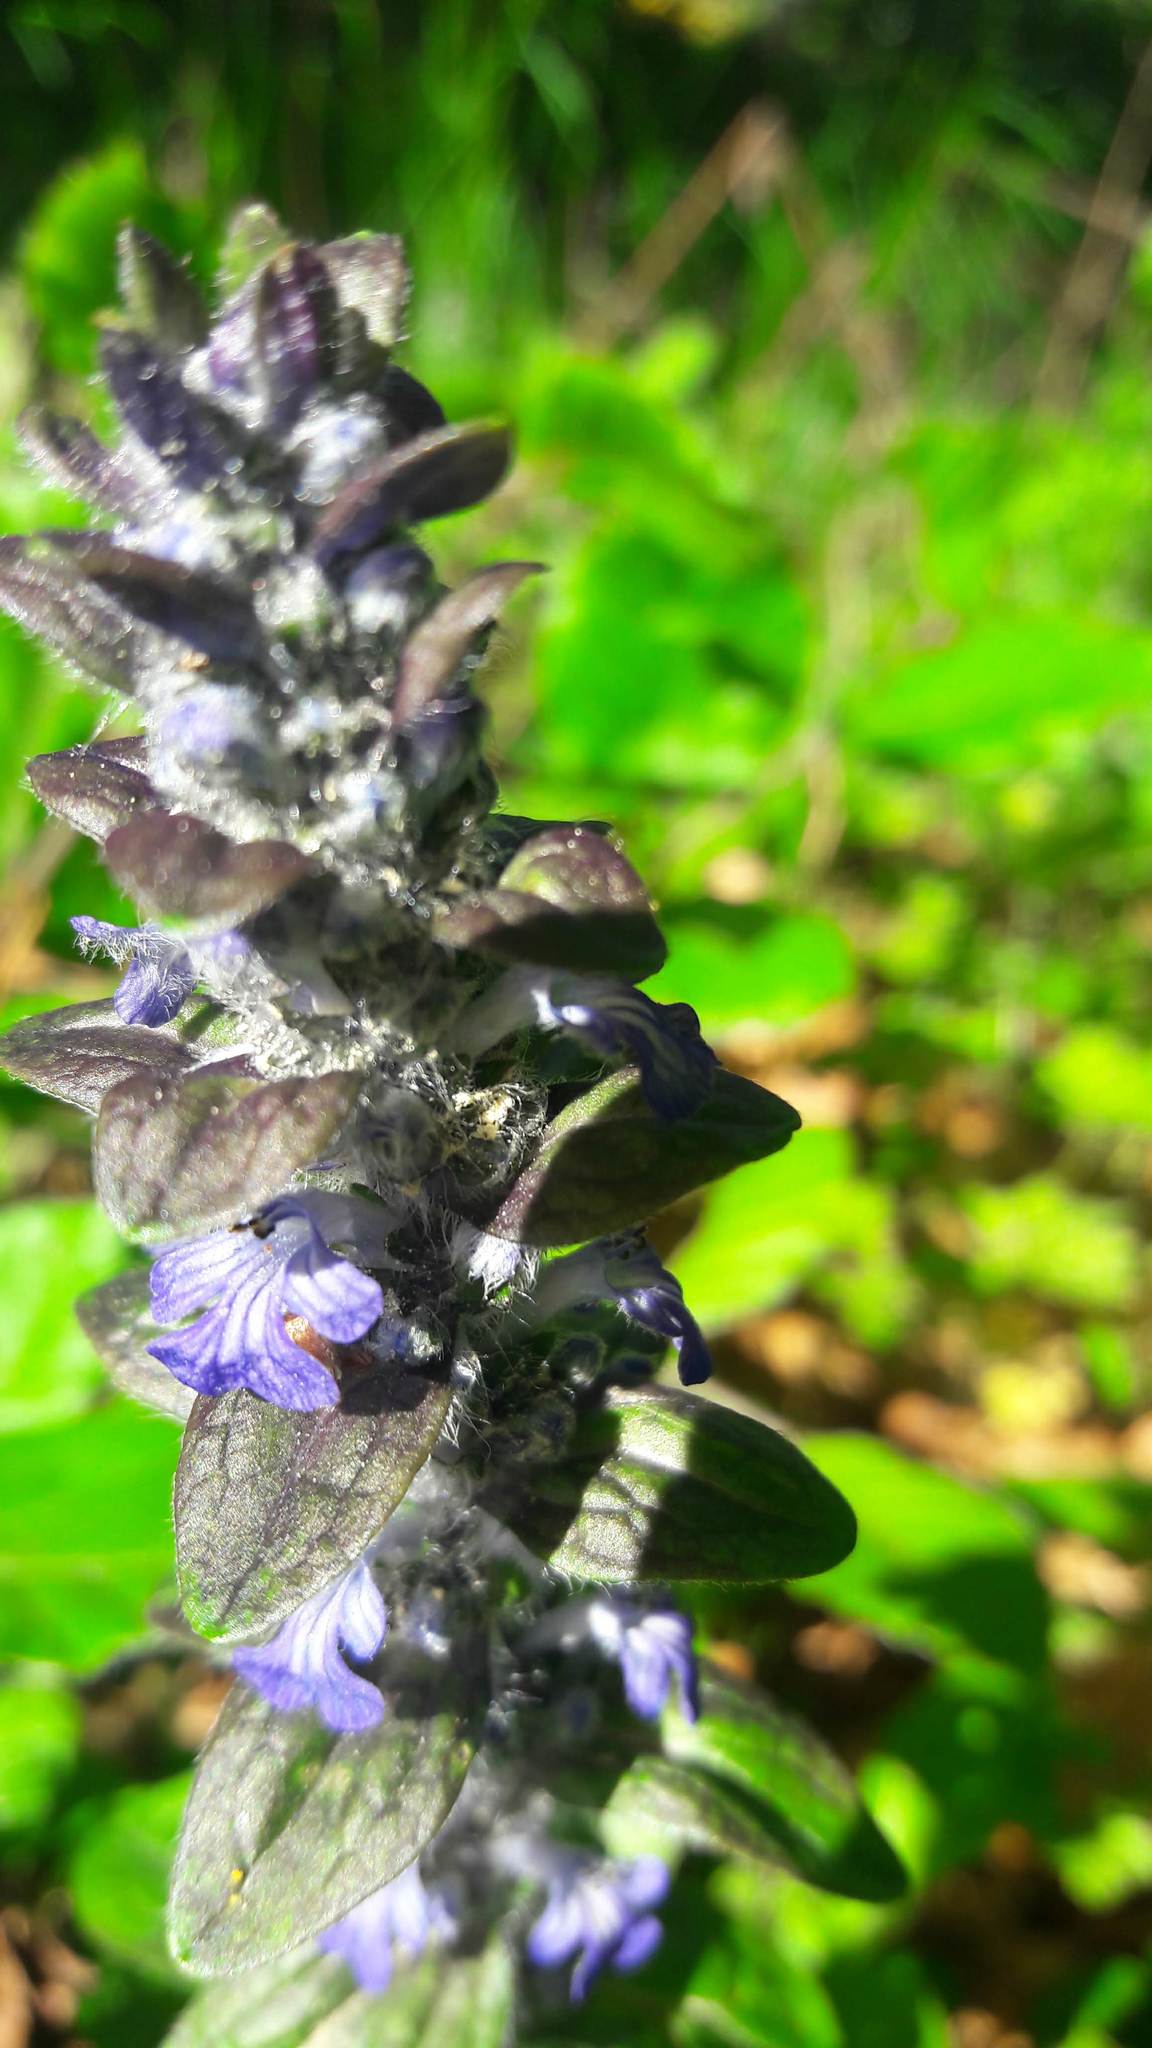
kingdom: Plantae
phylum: Tracheophyta
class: Magnoliopsida
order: Lamiales
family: Lamiaceae
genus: Ajuga
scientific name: Ajuga reptans
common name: Bugle
